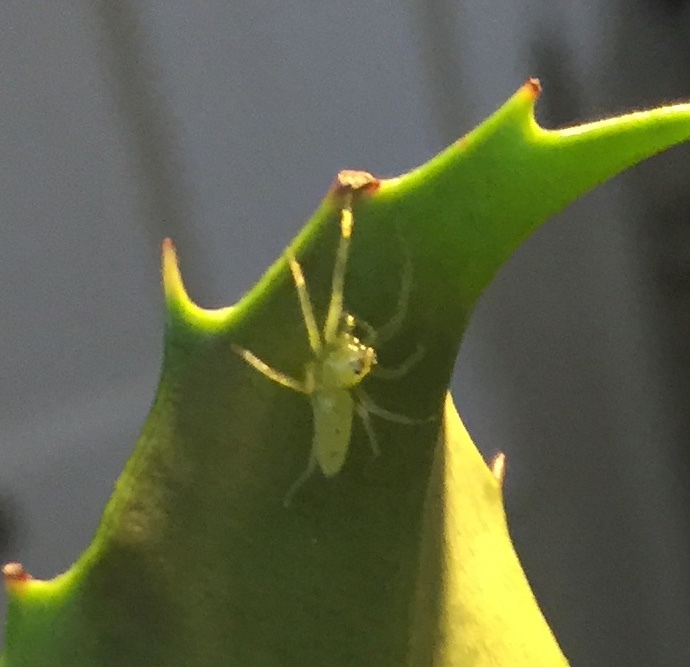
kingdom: Animalia
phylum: Arthropoda
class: Arachnida
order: Araneae
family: Salticidae
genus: Lyssomanes
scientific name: Lyssomanes viridis
